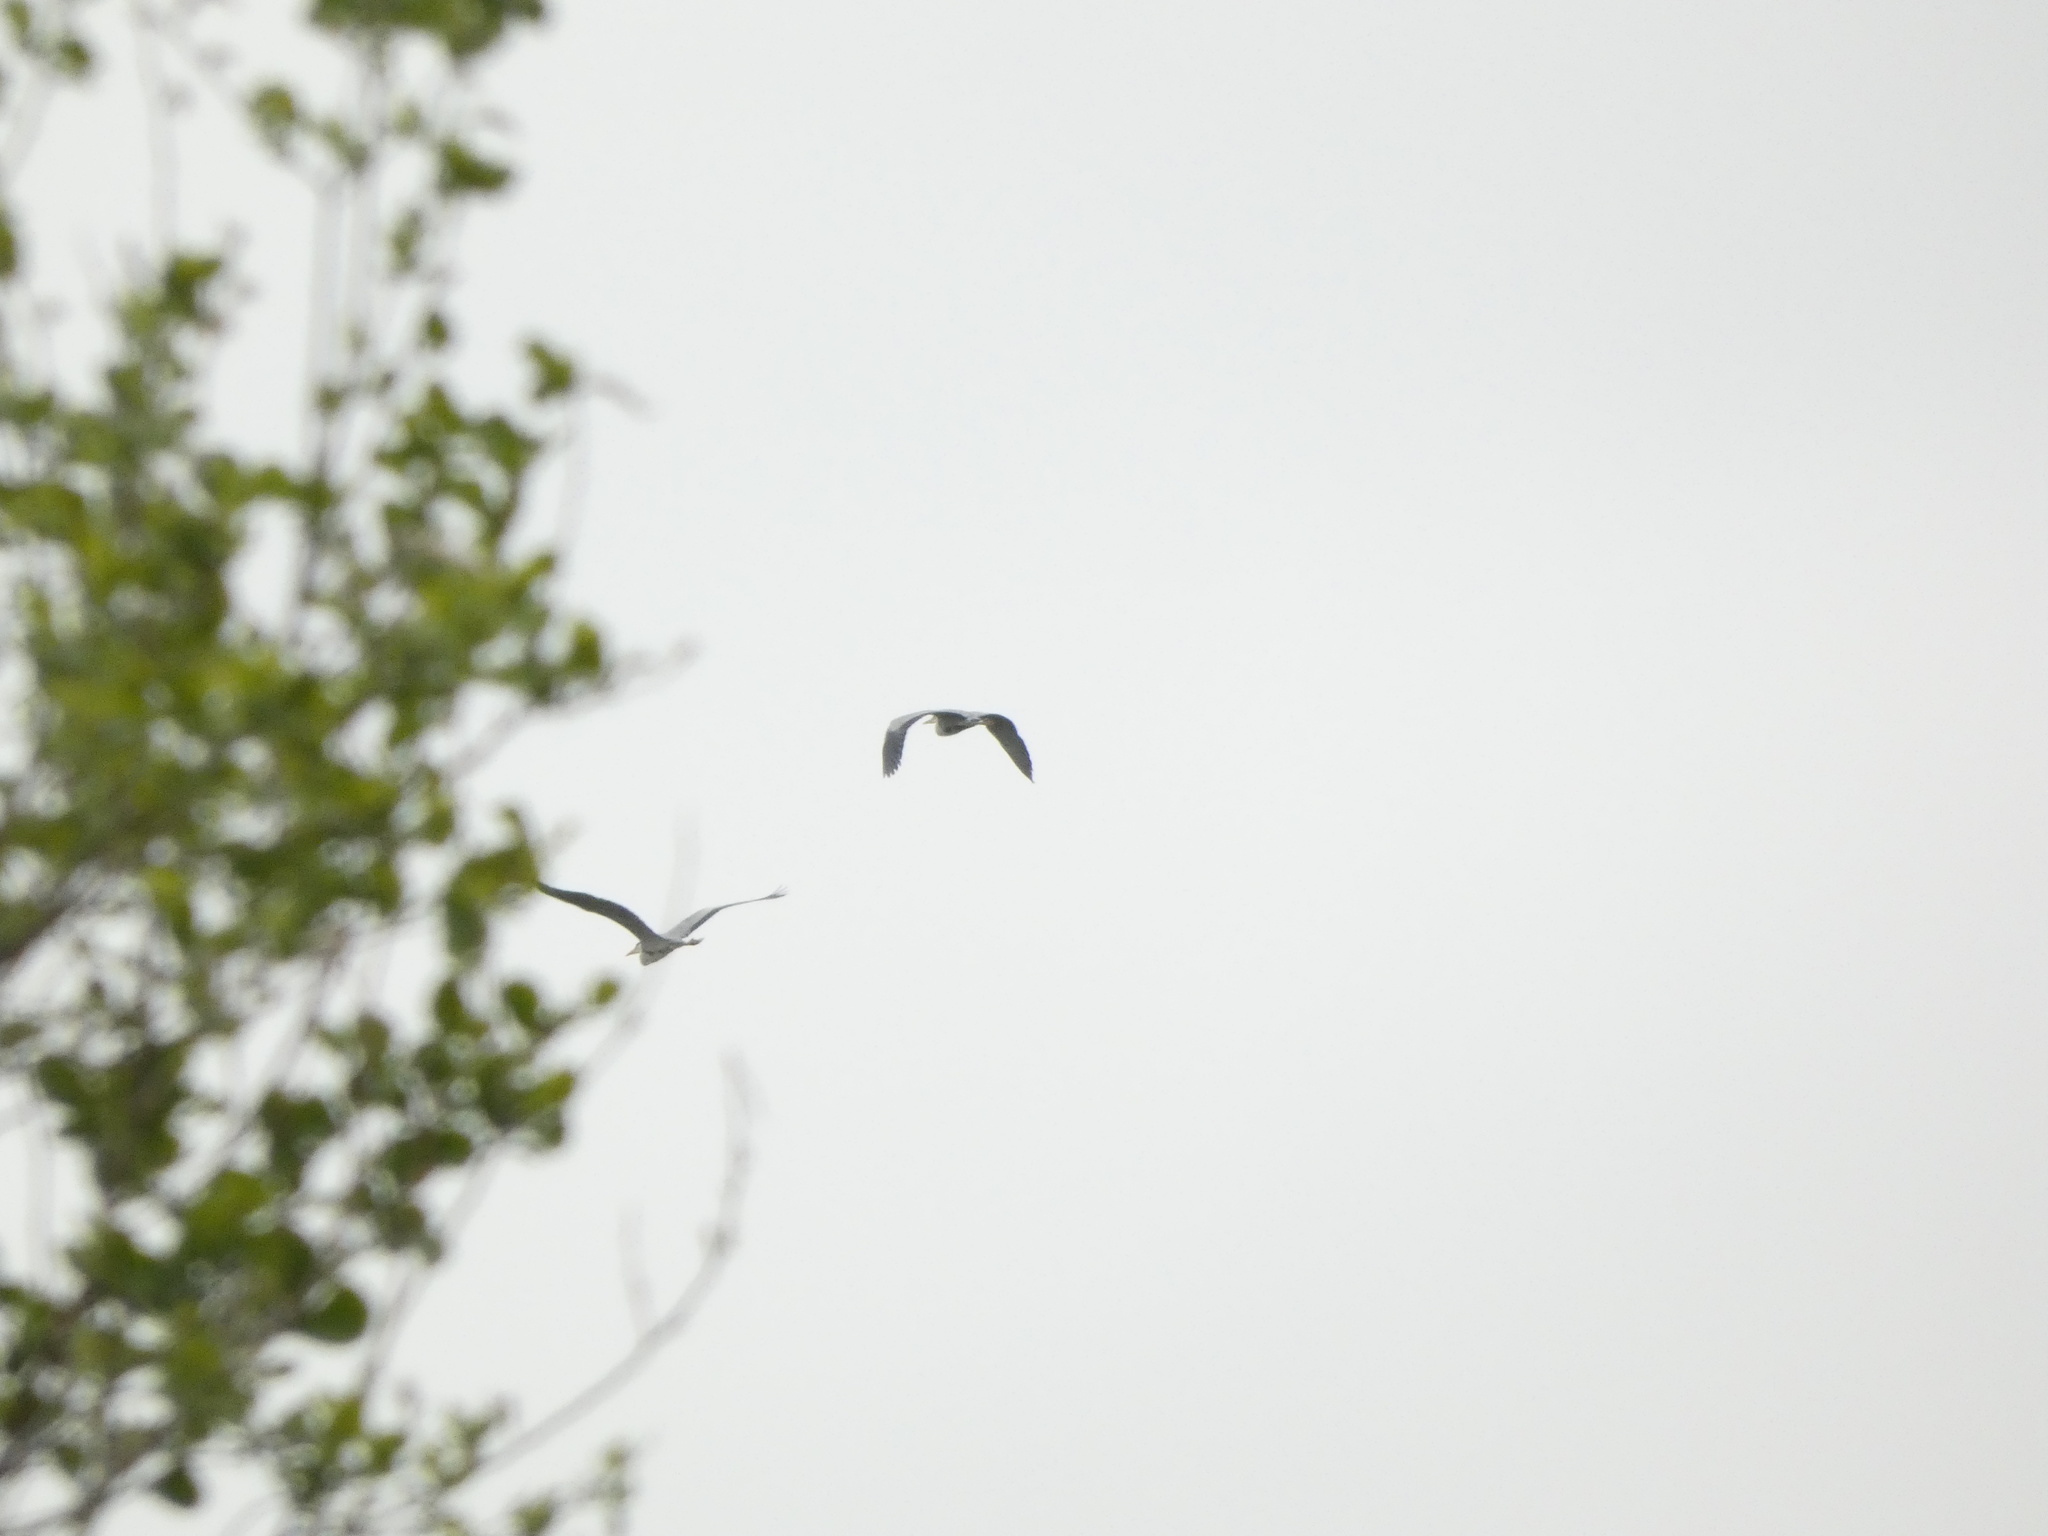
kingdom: Animalia
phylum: Chordata
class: Aves
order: Pelecaniformes
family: Ardeidae
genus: Ardea
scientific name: Ardea cinerea
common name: Grey heron
